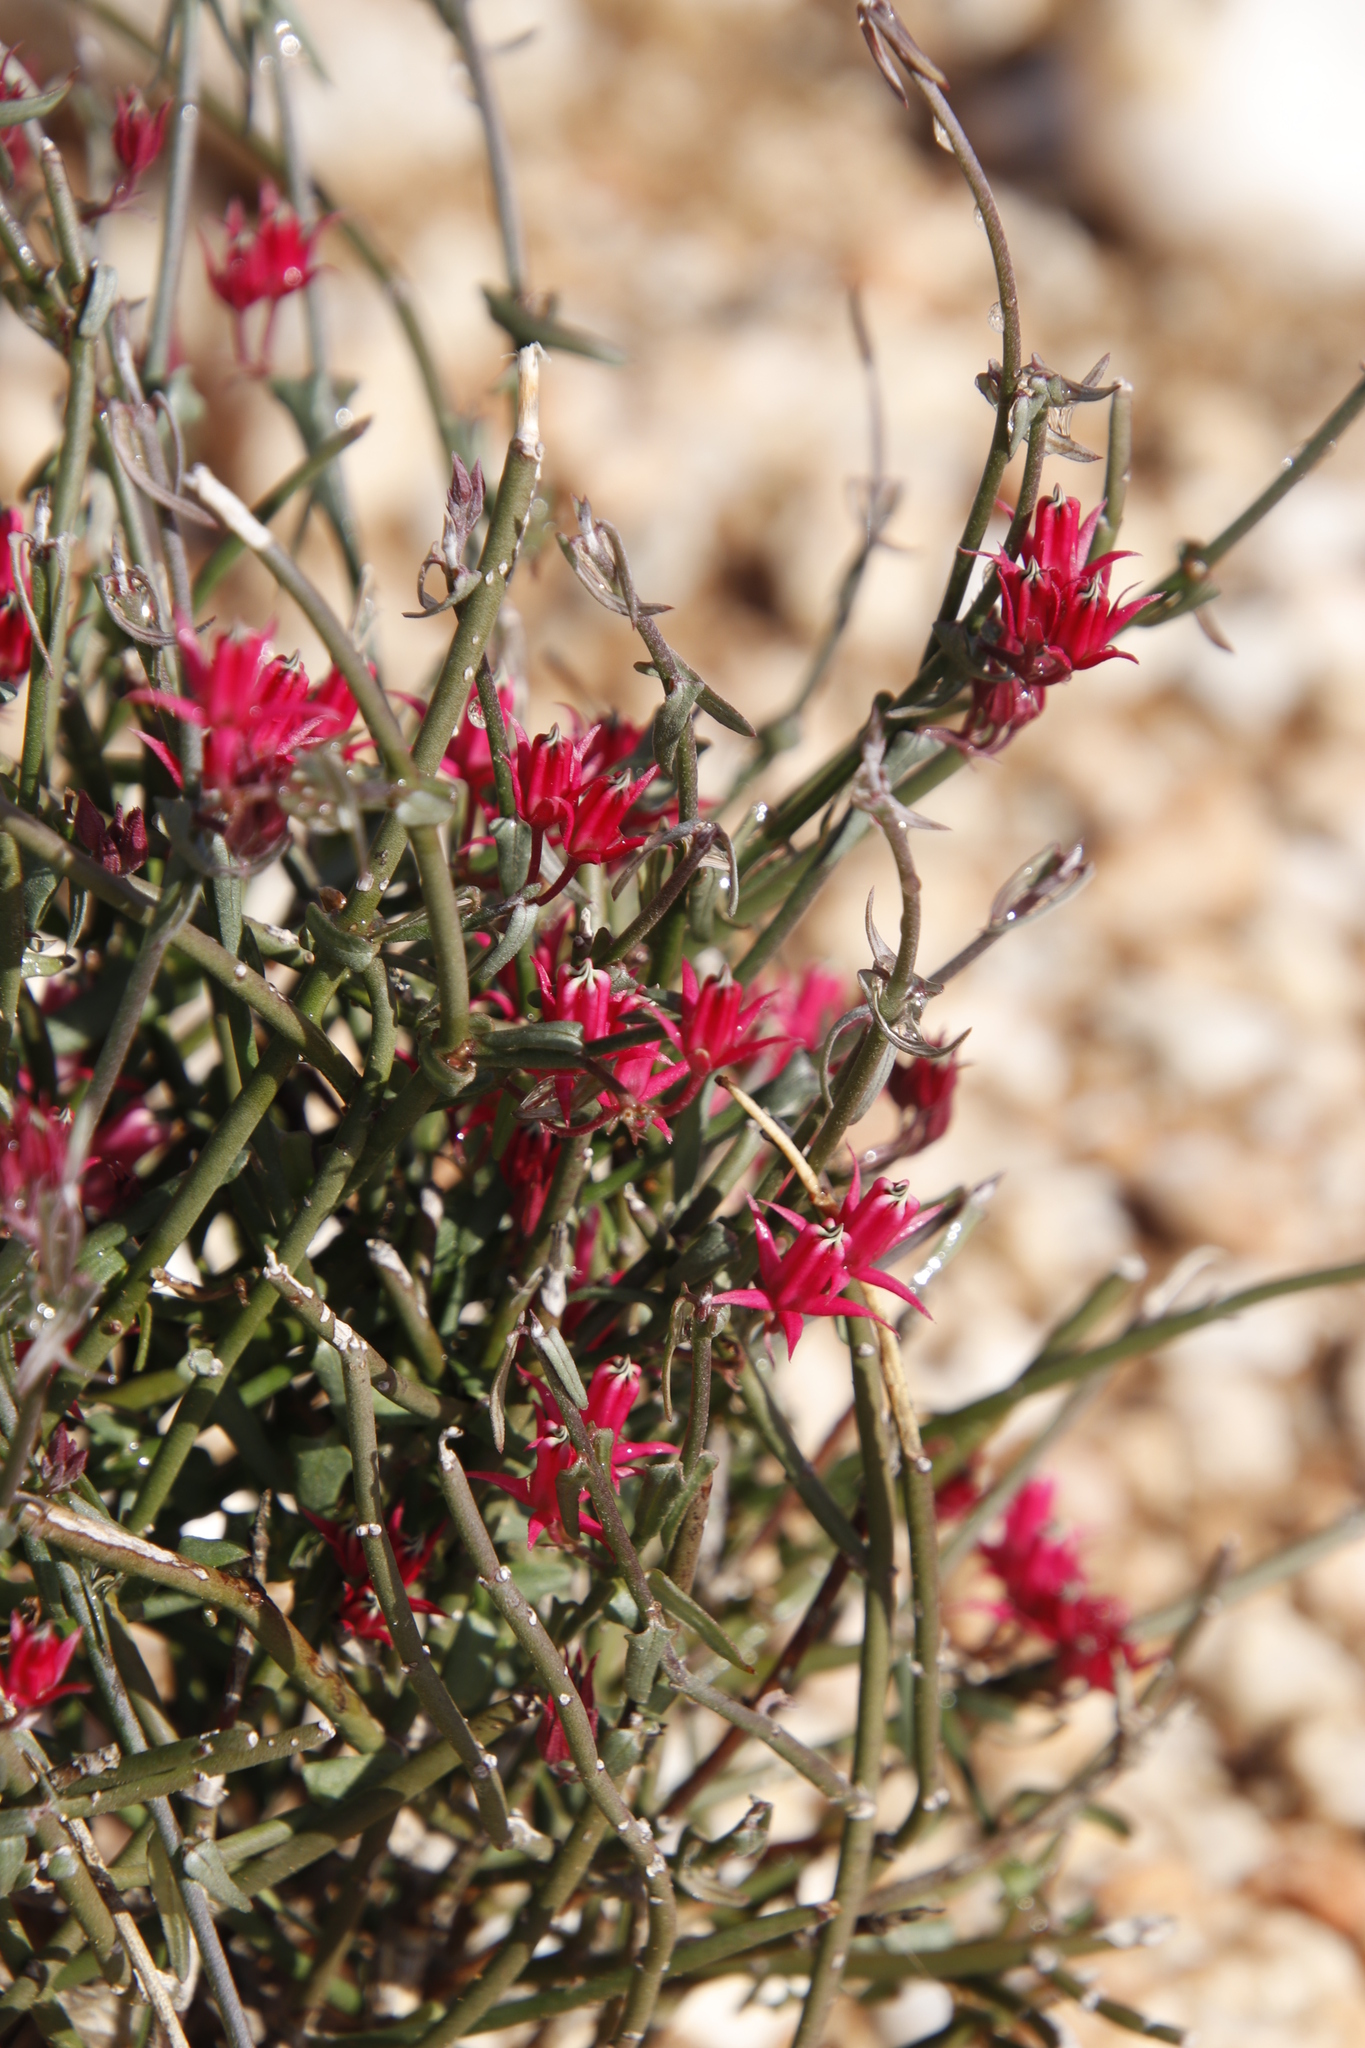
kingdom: Plantae
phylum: Tracheophyta
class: Magnoliopsida
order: Gentianales
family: Apocynaceae
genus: Microloma
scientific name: Microloma sagittatum
